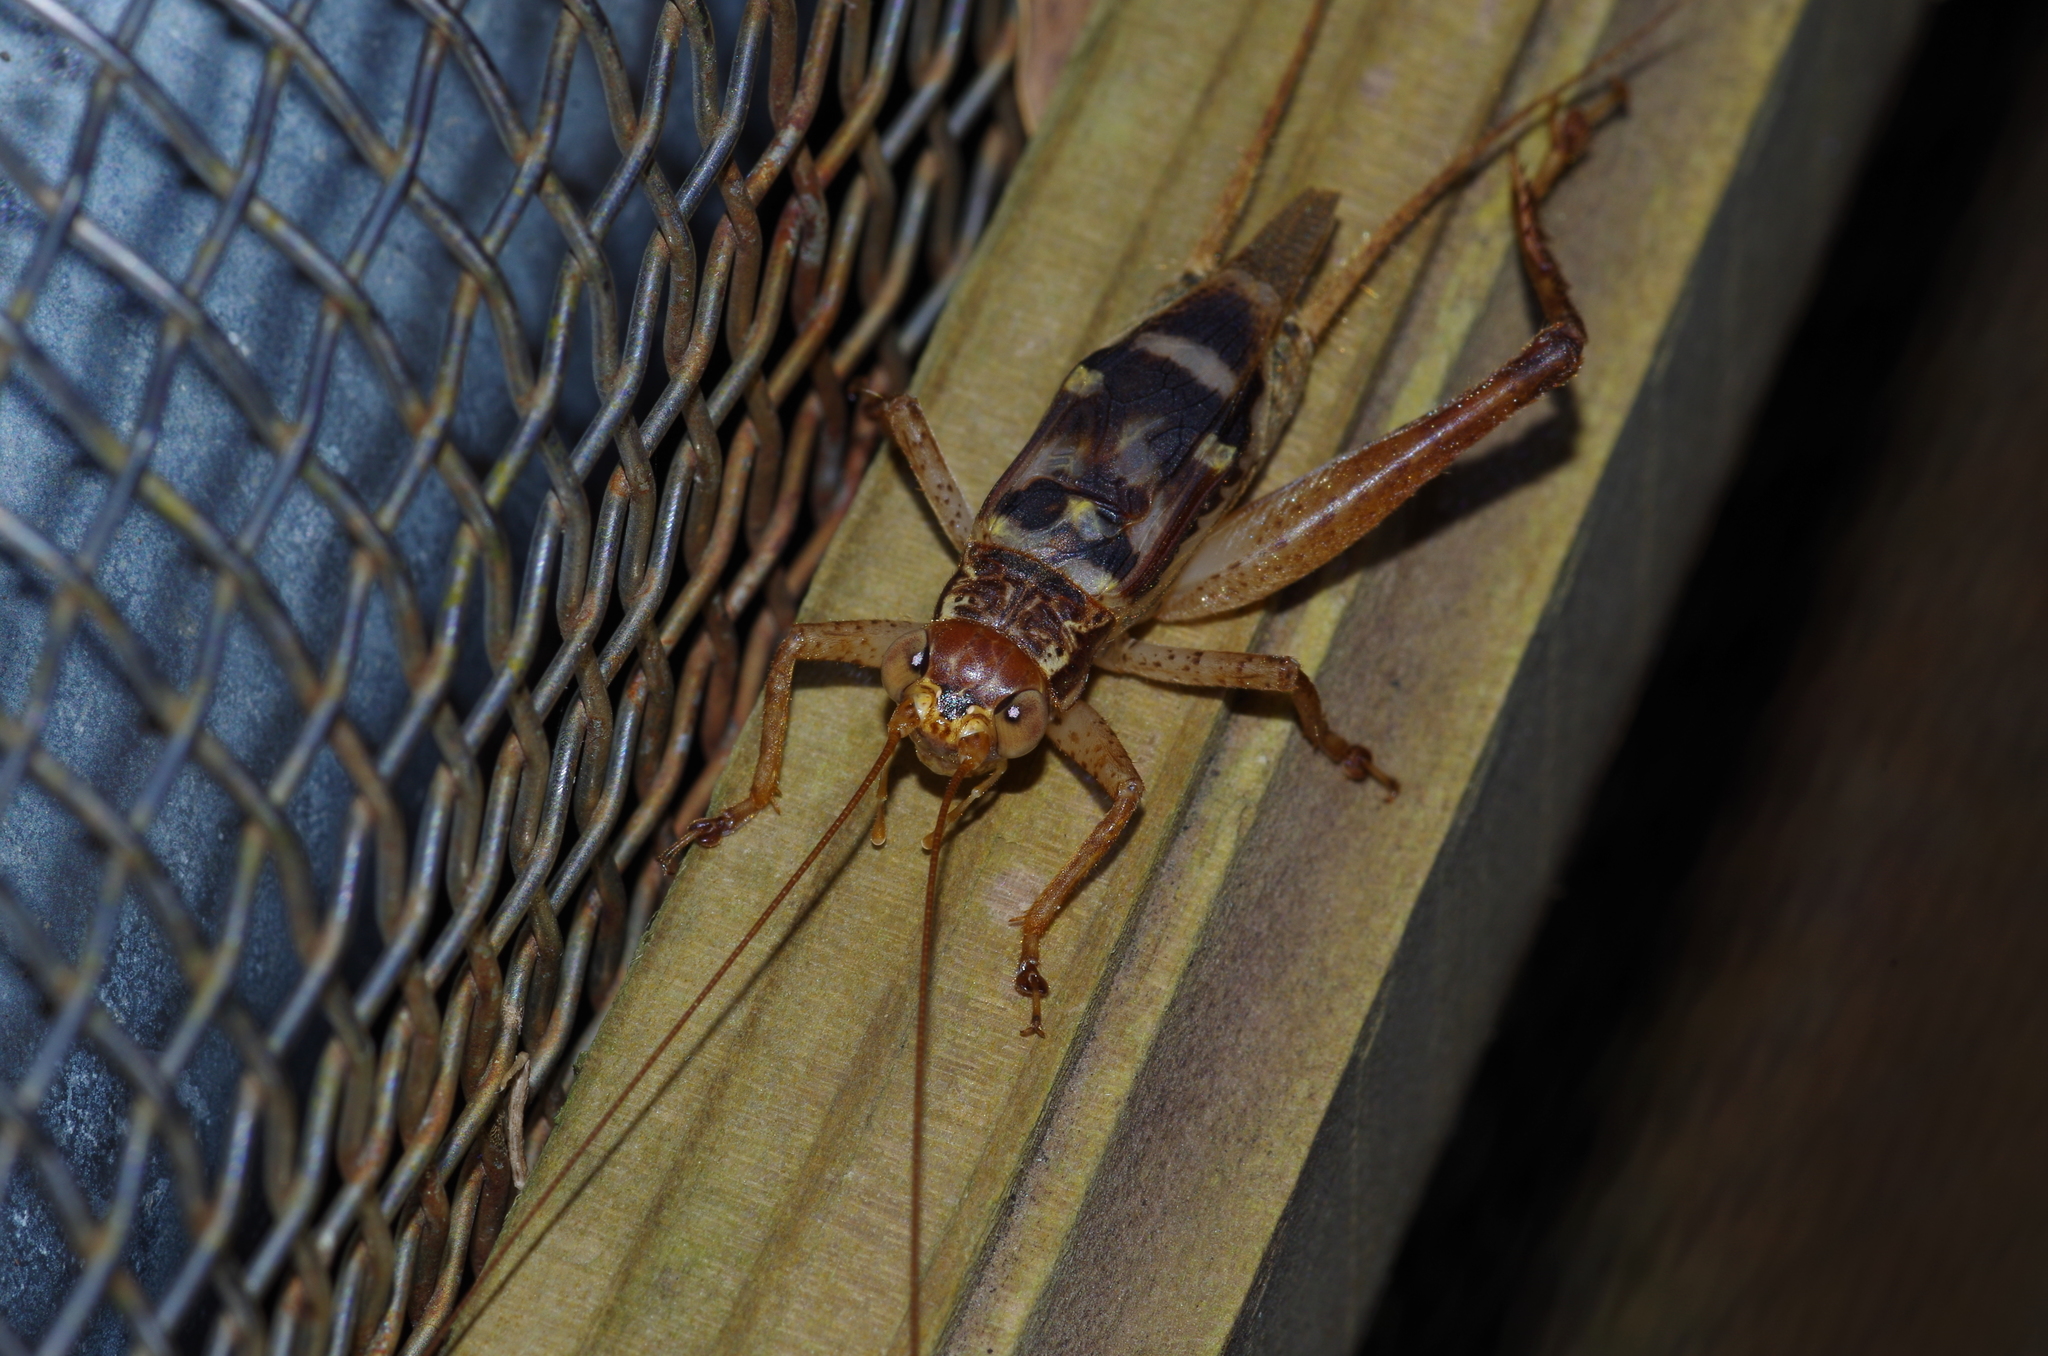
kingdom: Animalia
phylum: Arthropoda
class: Insecta
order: Orthoptera
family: Gryllidae
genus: Cardiodactylus
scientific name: Cardiodactylus guttulus
